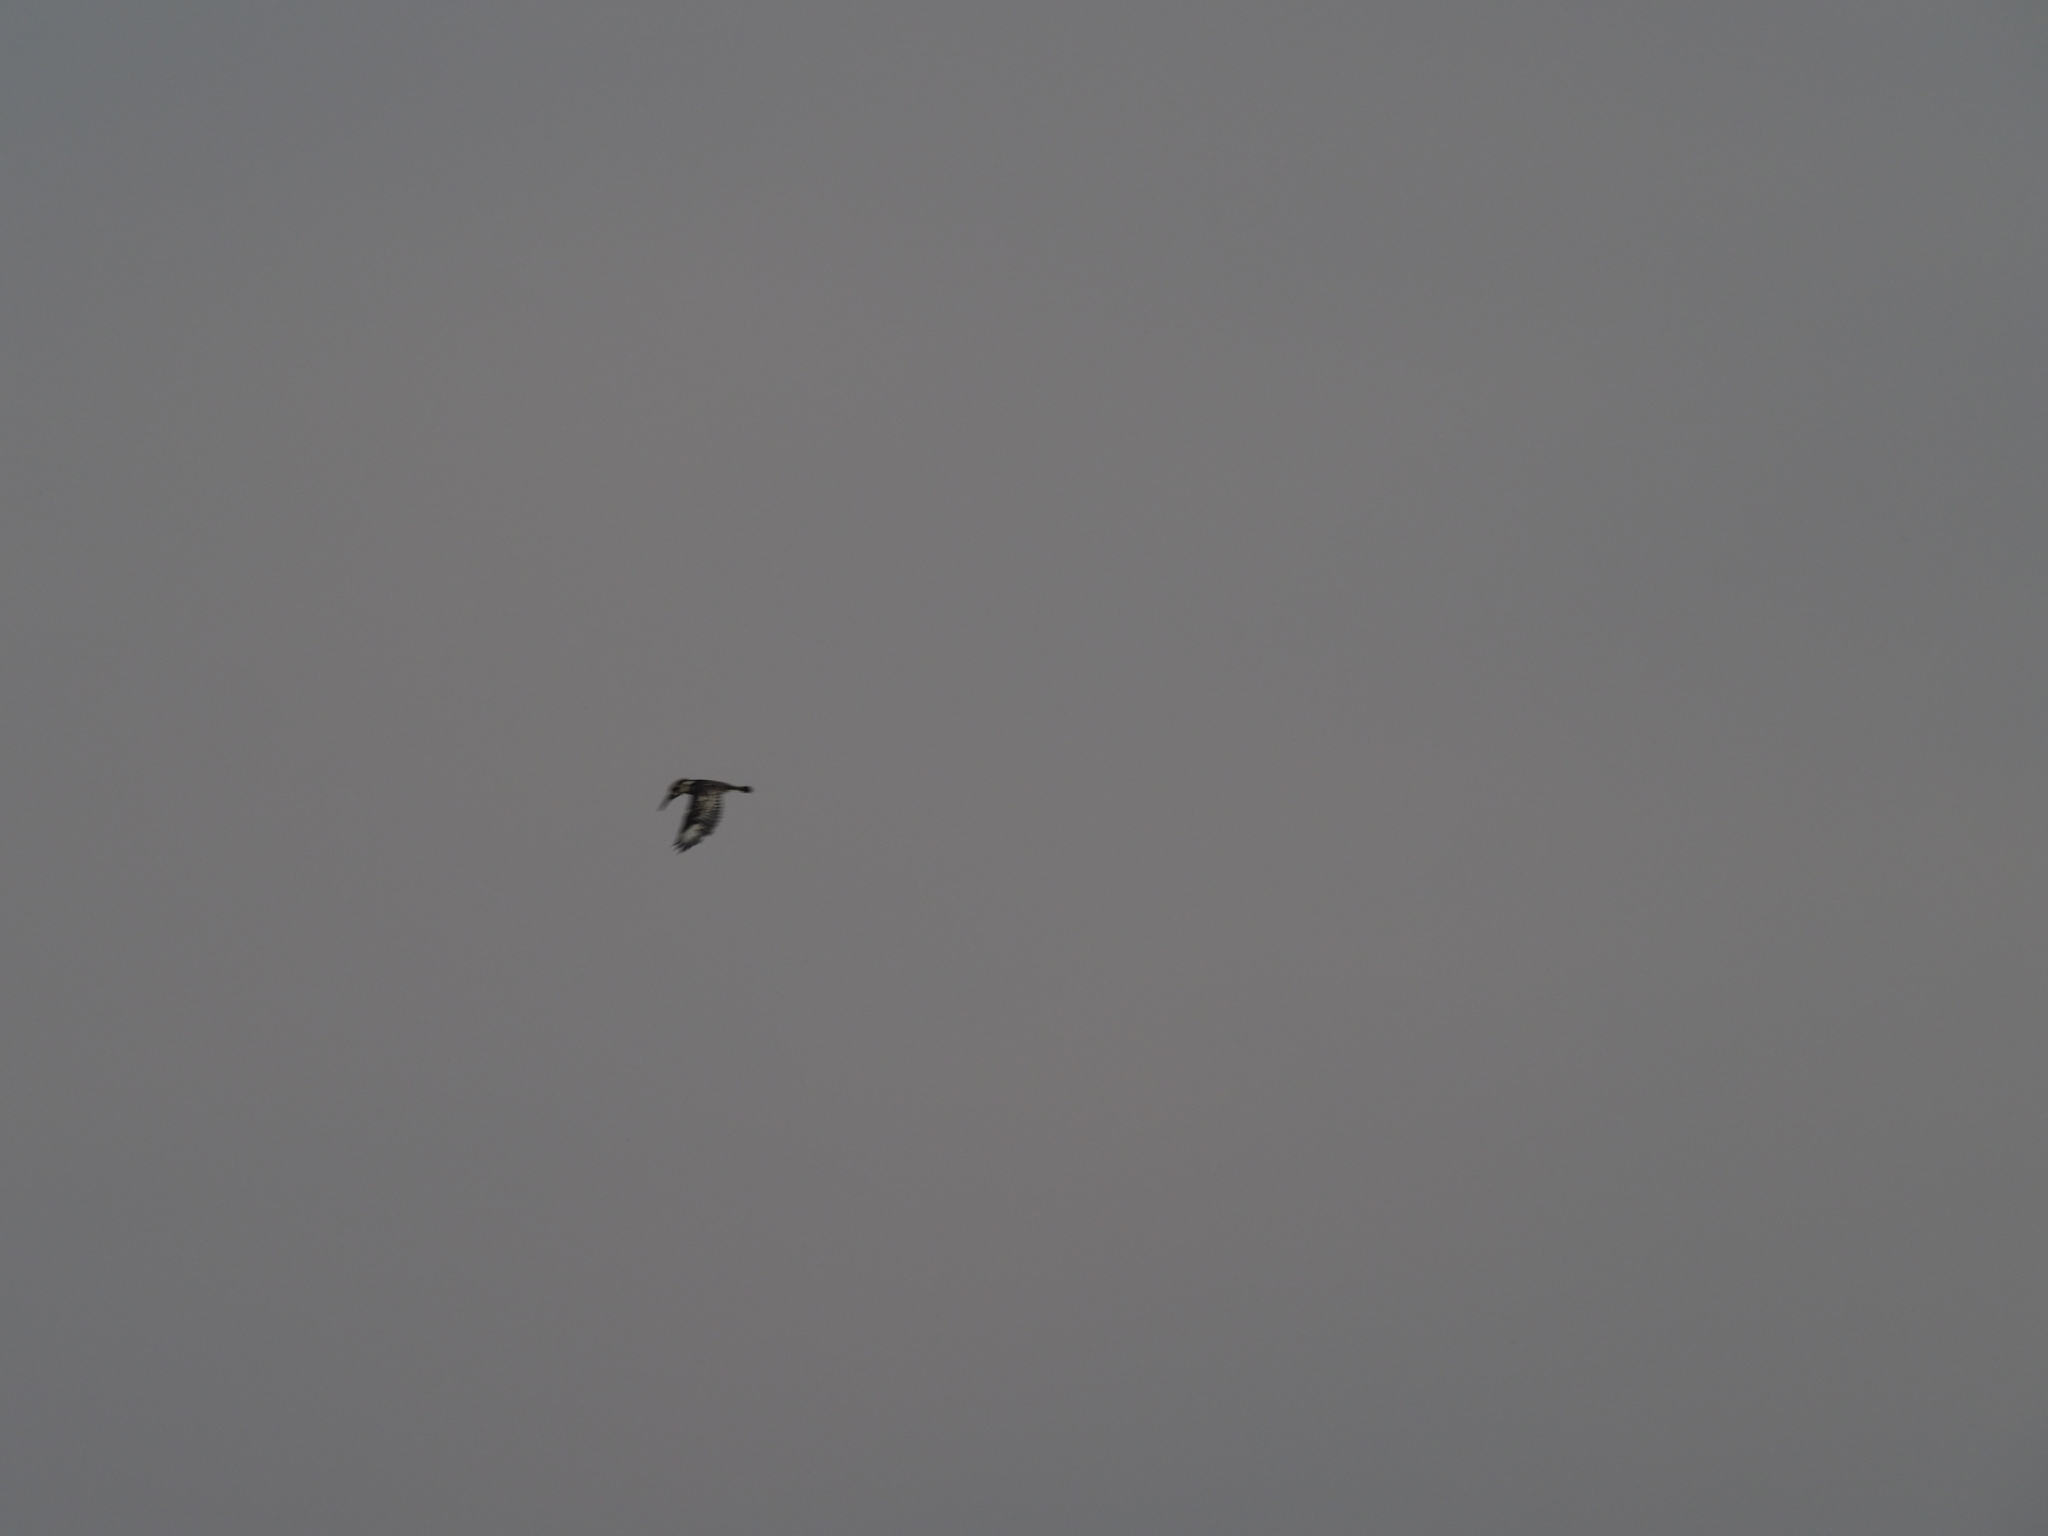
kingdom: Animalia
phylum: Chordata
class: Aves
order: Coraciiformes
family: Alcedinidae
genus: Ceryle
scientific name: Ceryle rudis
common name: Pied kingfisher
